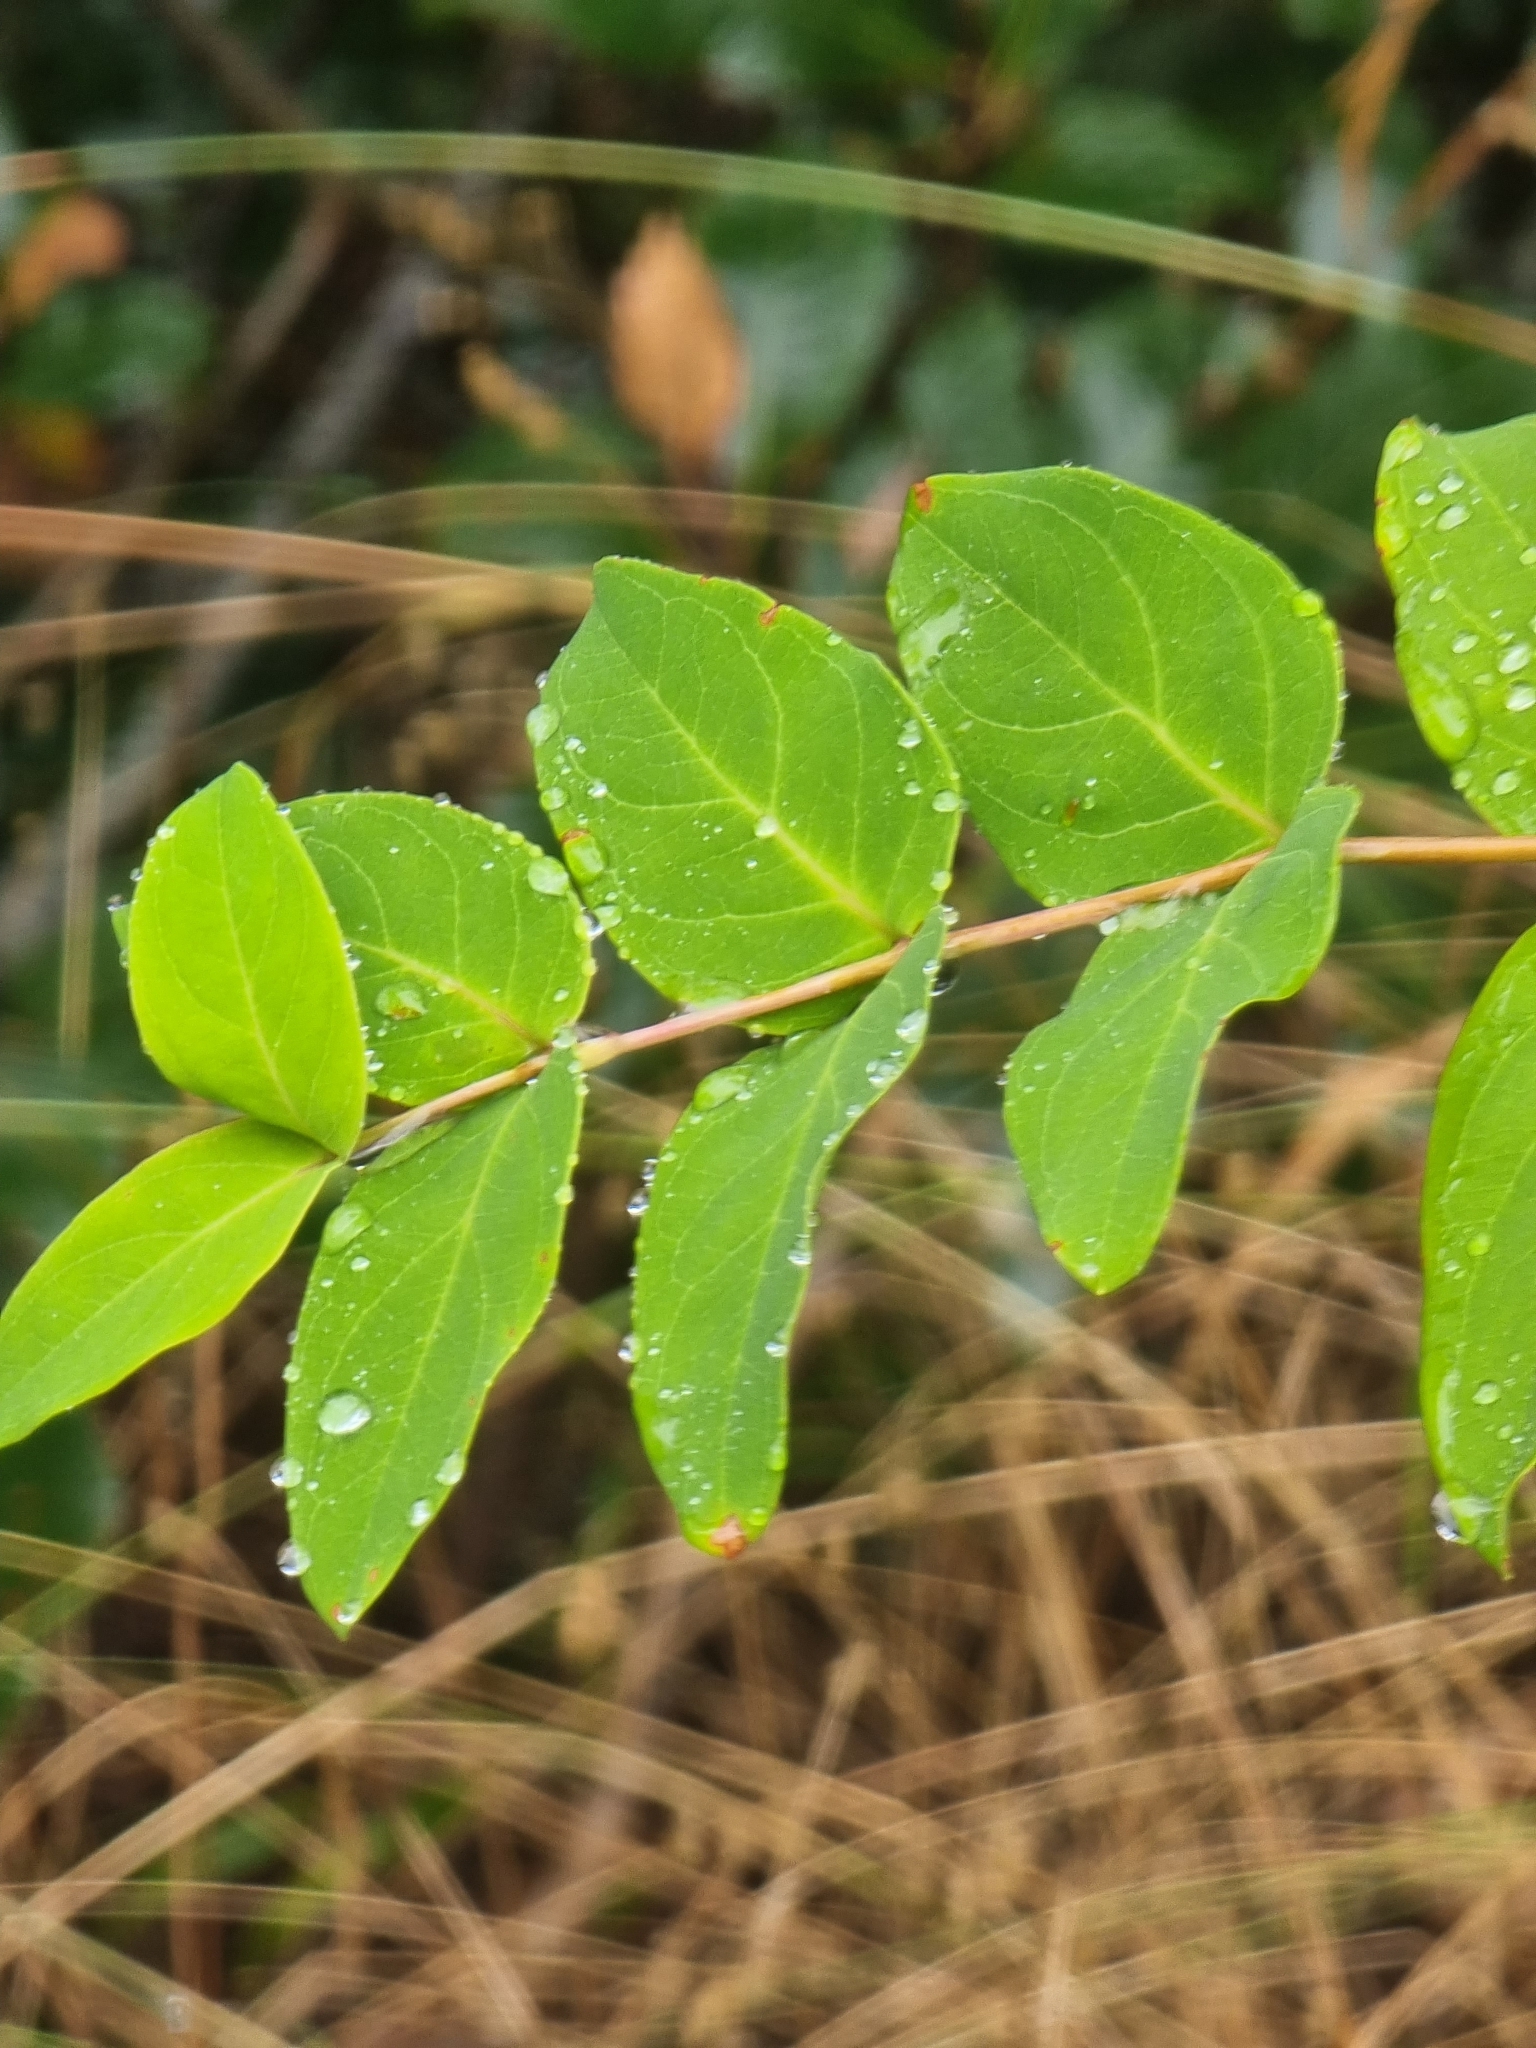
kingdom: Plantae
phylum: Tracheophyta
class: Magnoliopsida
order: Malpighiales
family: Hypericaceae
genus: Hypericum
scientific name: Hypericum grandifolium
